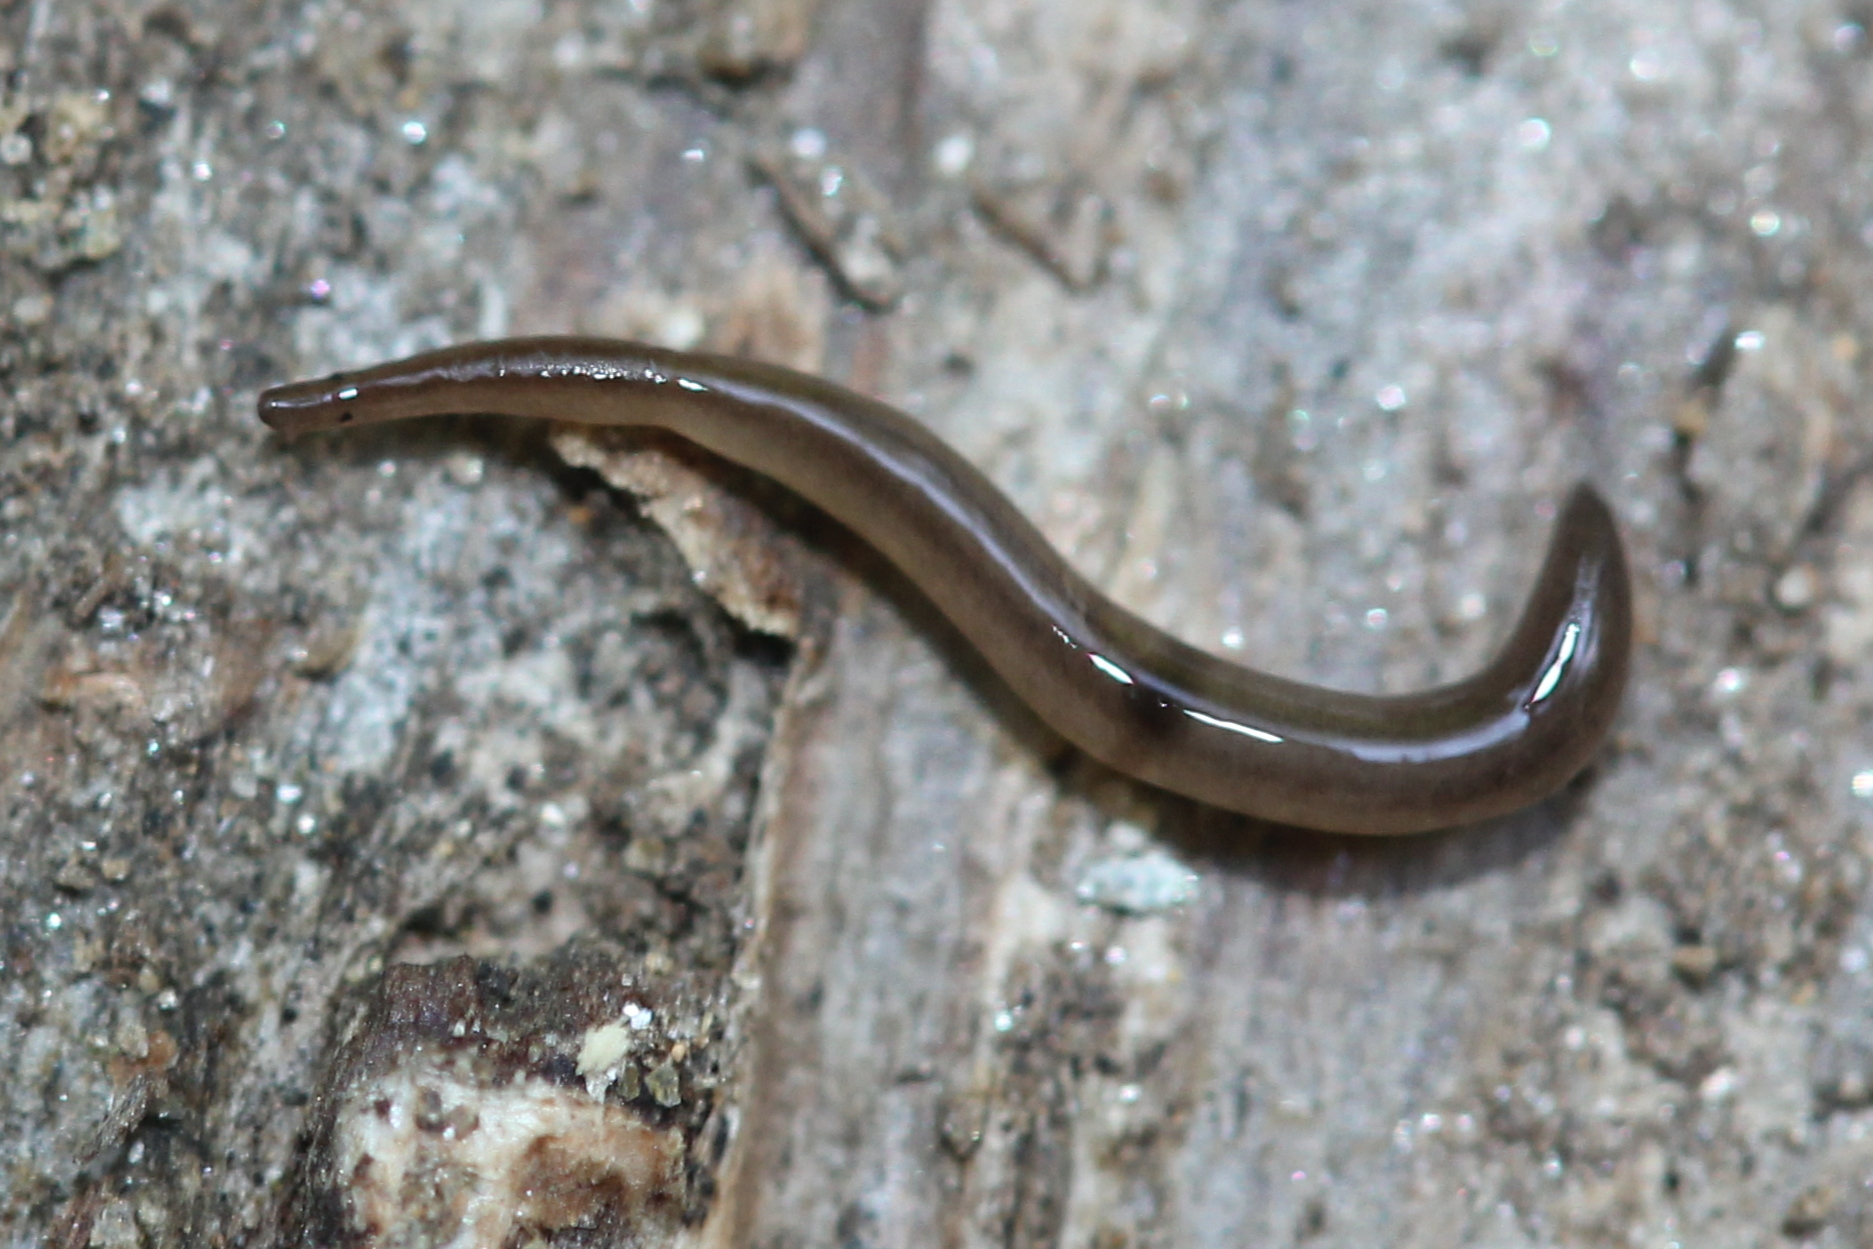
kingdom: Animalia
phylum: Platyhelminthes
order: Tricladida
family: Geoplanidae
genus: Rhynchodemus
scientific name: Rhynchodemus sylvaticus
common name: A flatworm
